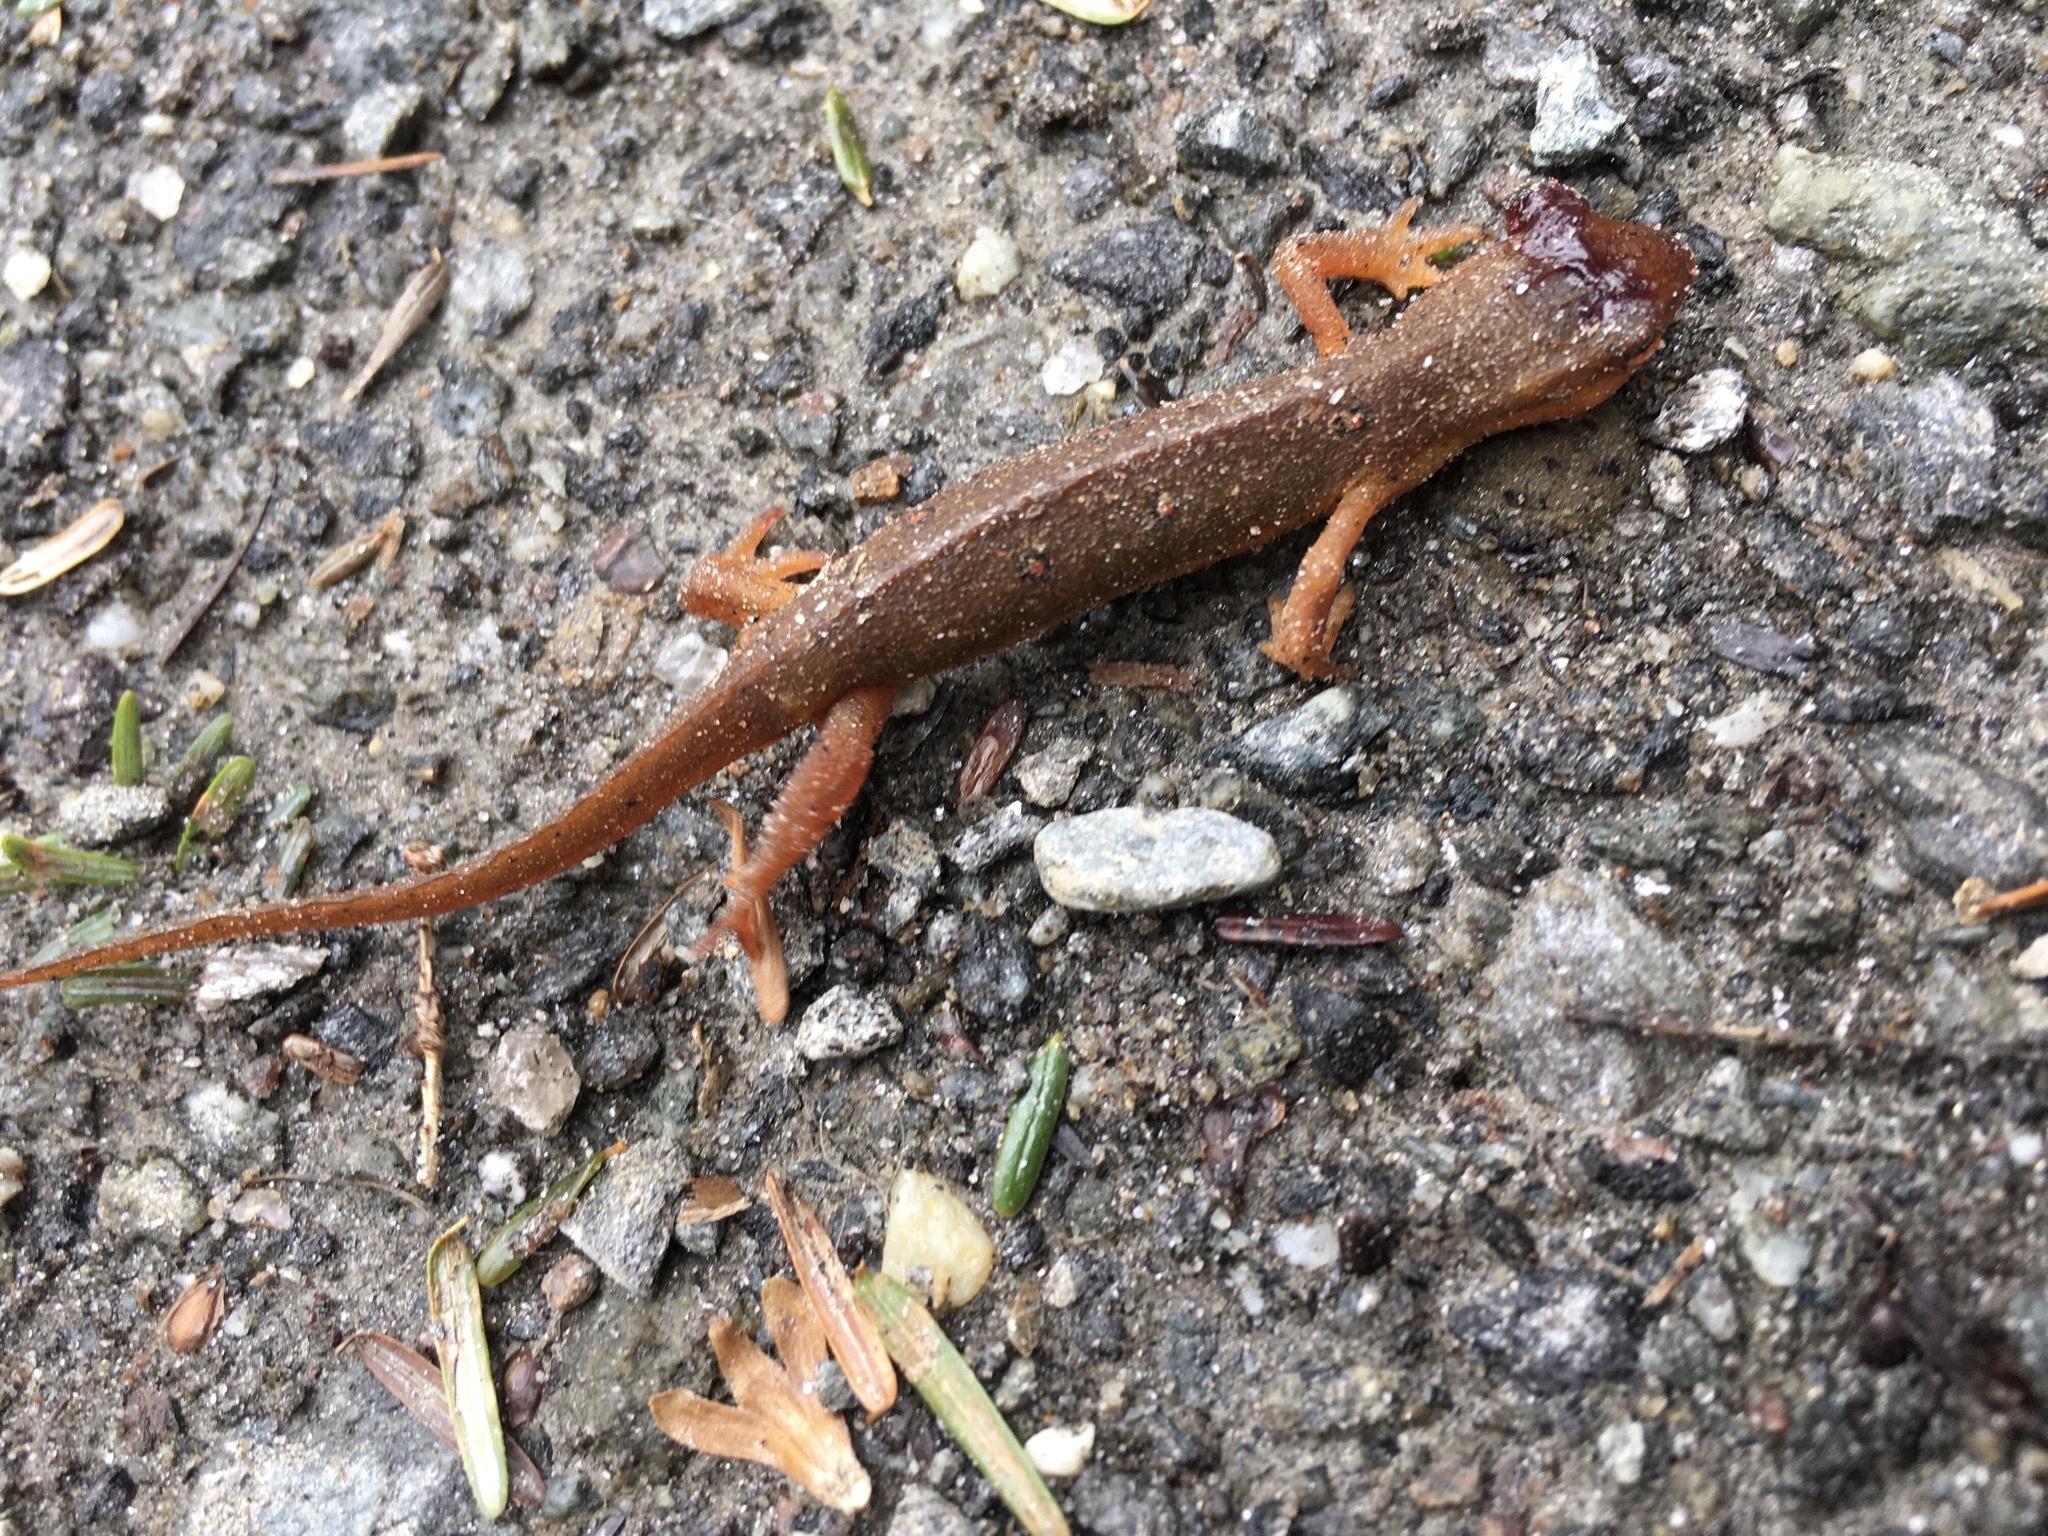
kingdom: Animalia
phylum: Chordata
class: Amphibia
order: Caudata
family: Salamandridae
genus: Notophthalmus
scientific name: Notophthalmus viridescens
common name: Eastern newt
